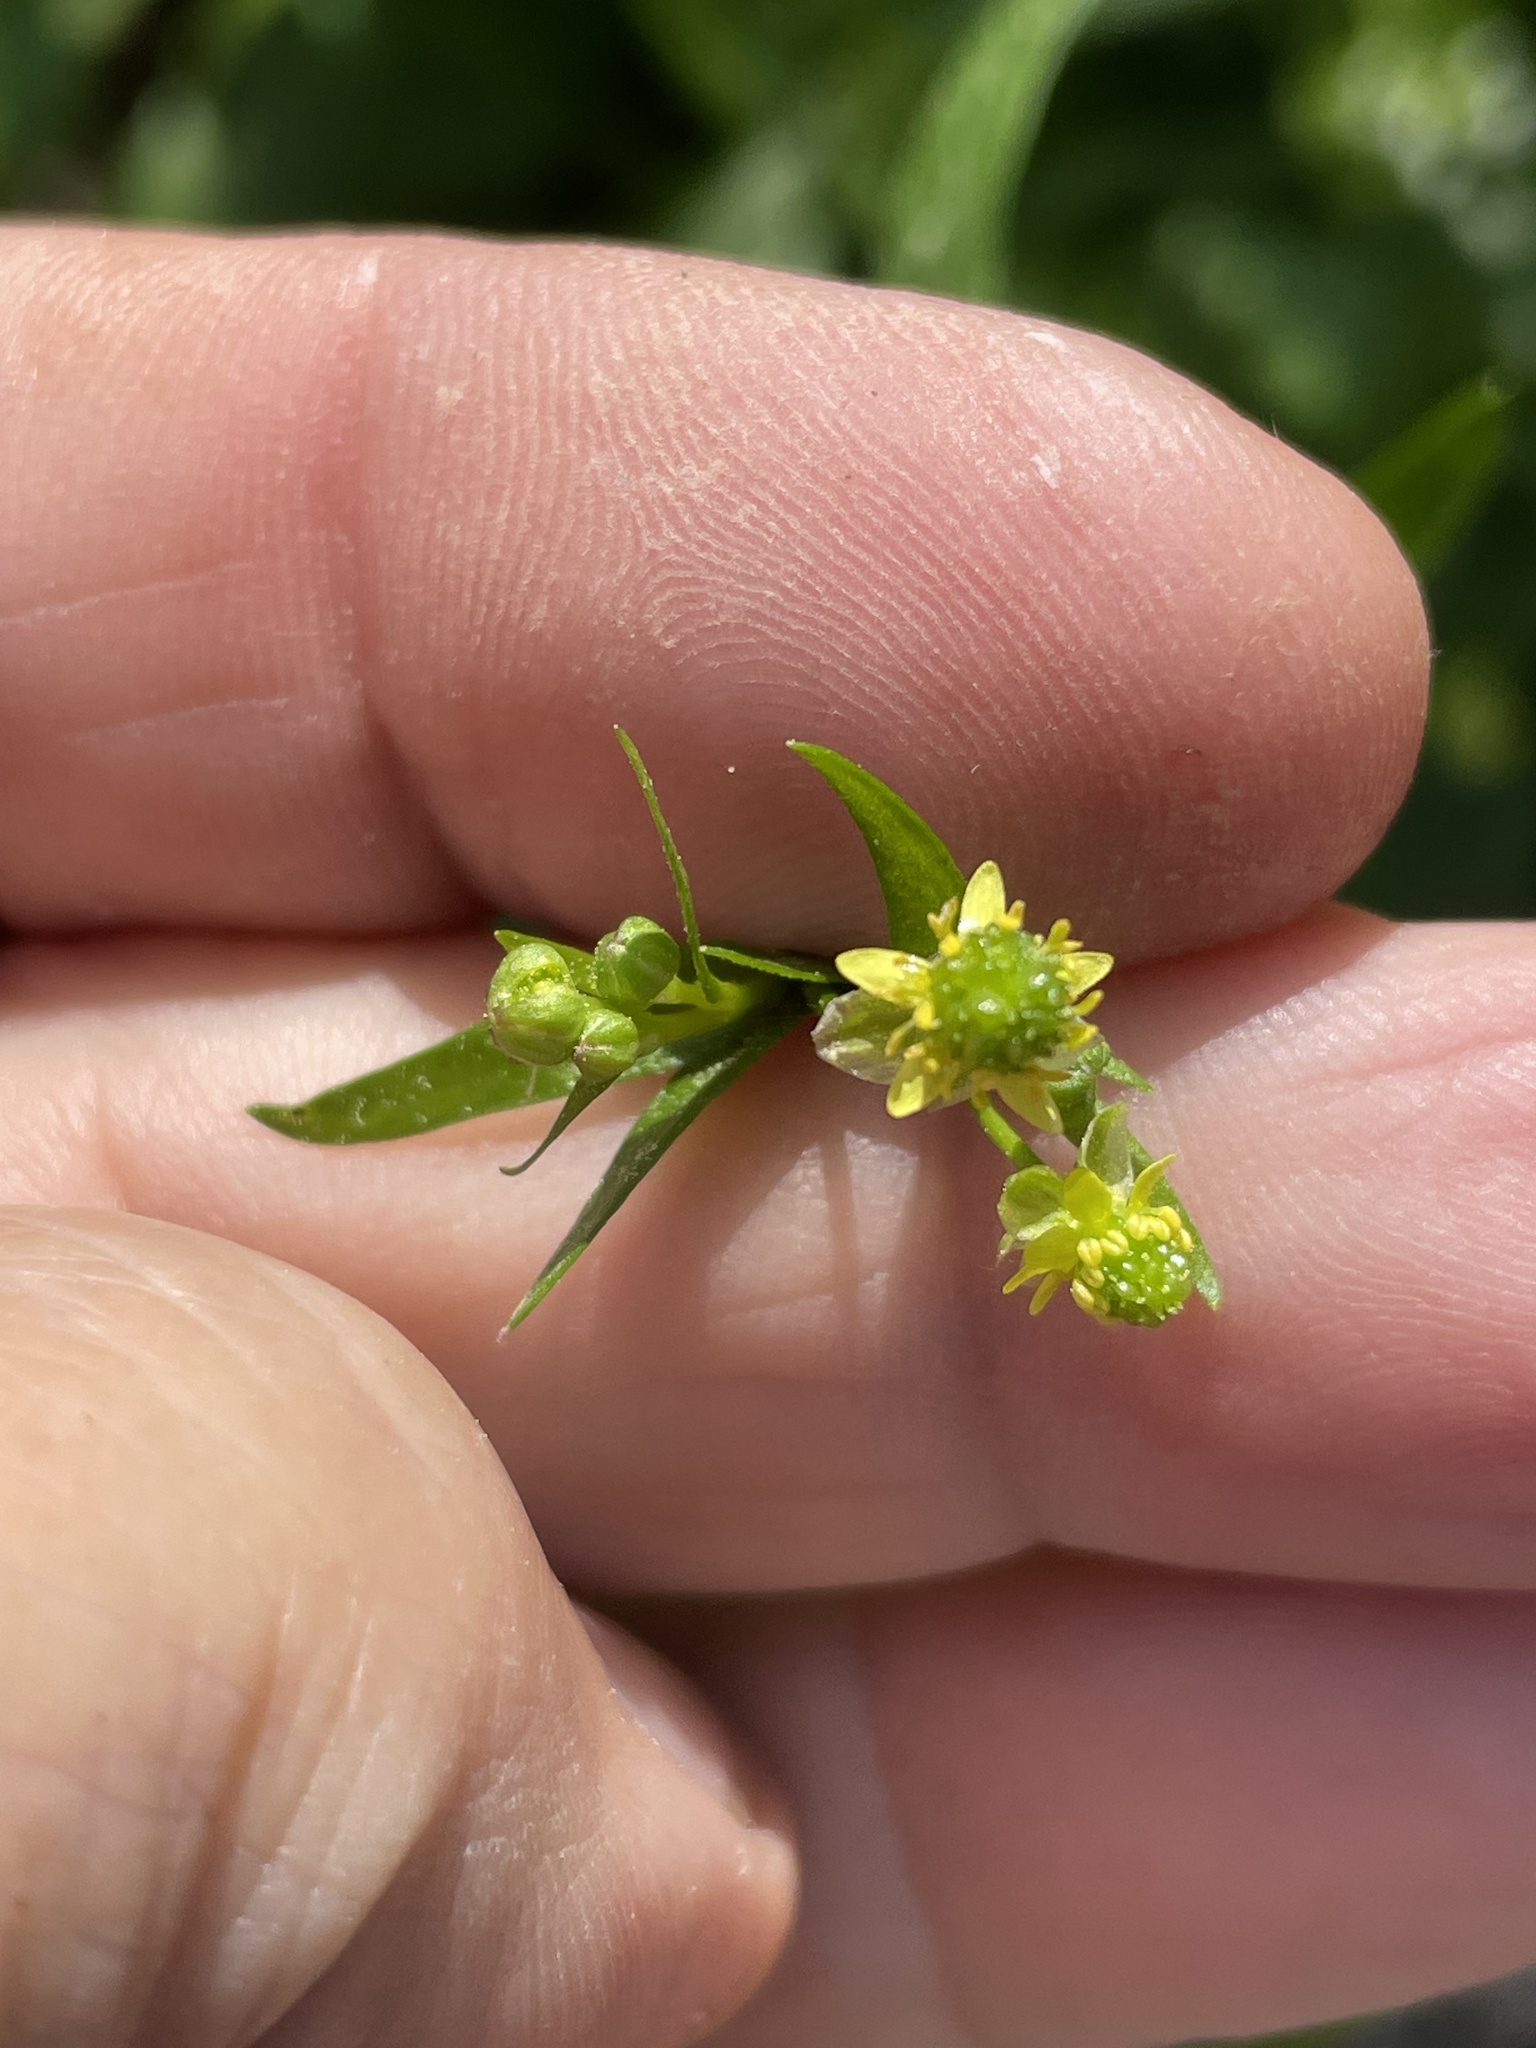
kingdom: Plantae
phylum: Tracheophyta
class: Magnoliopsida
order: Ranunculales
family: Ranunculaceae
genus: Ranunculus
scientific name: Ranunculus abortivus
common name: Early wood buttercup
